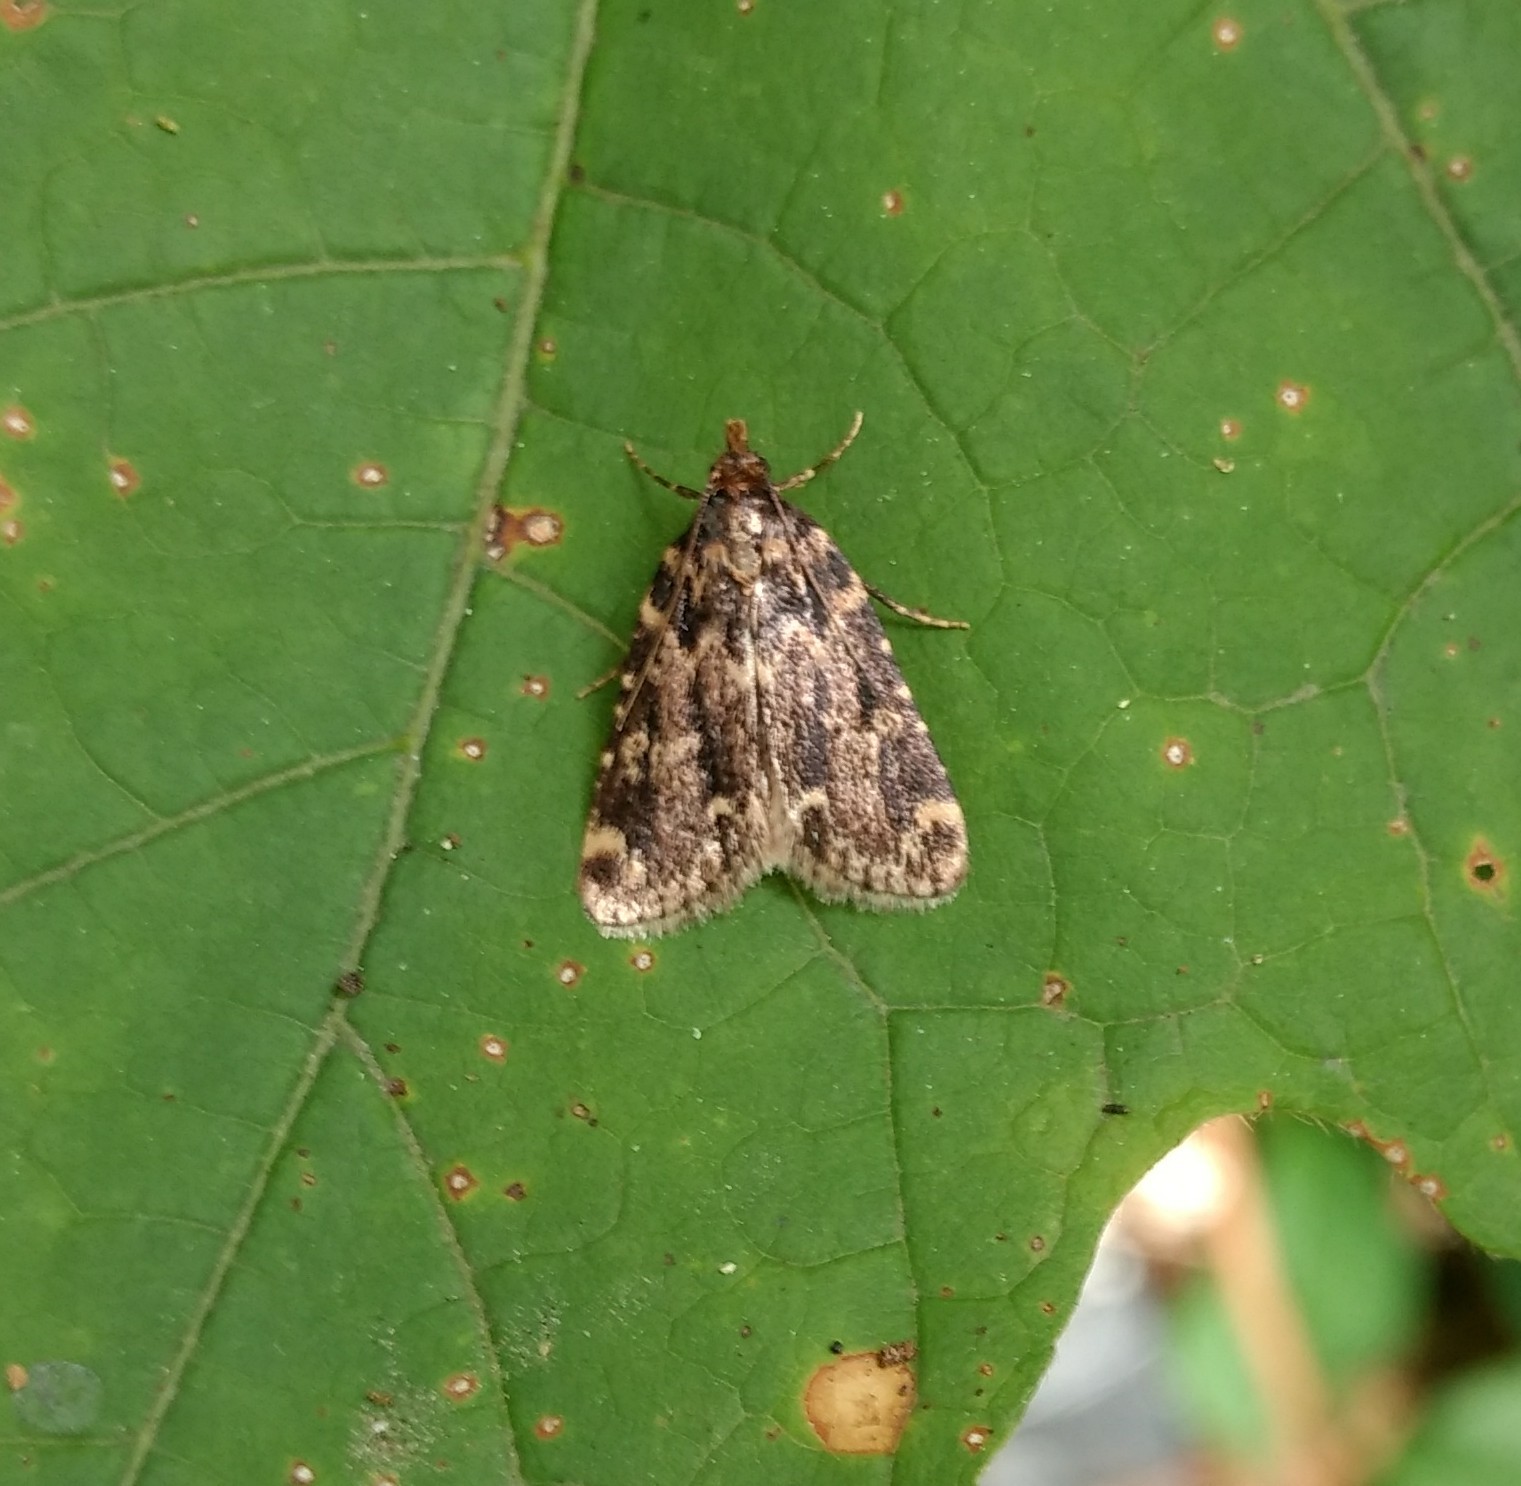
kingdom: Animalia
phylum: Arthropoda
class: Insecta
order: Lepidoptera
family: Pyralidae
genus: Aglossa
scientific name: Aglossa caprealis
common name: Small tabby
